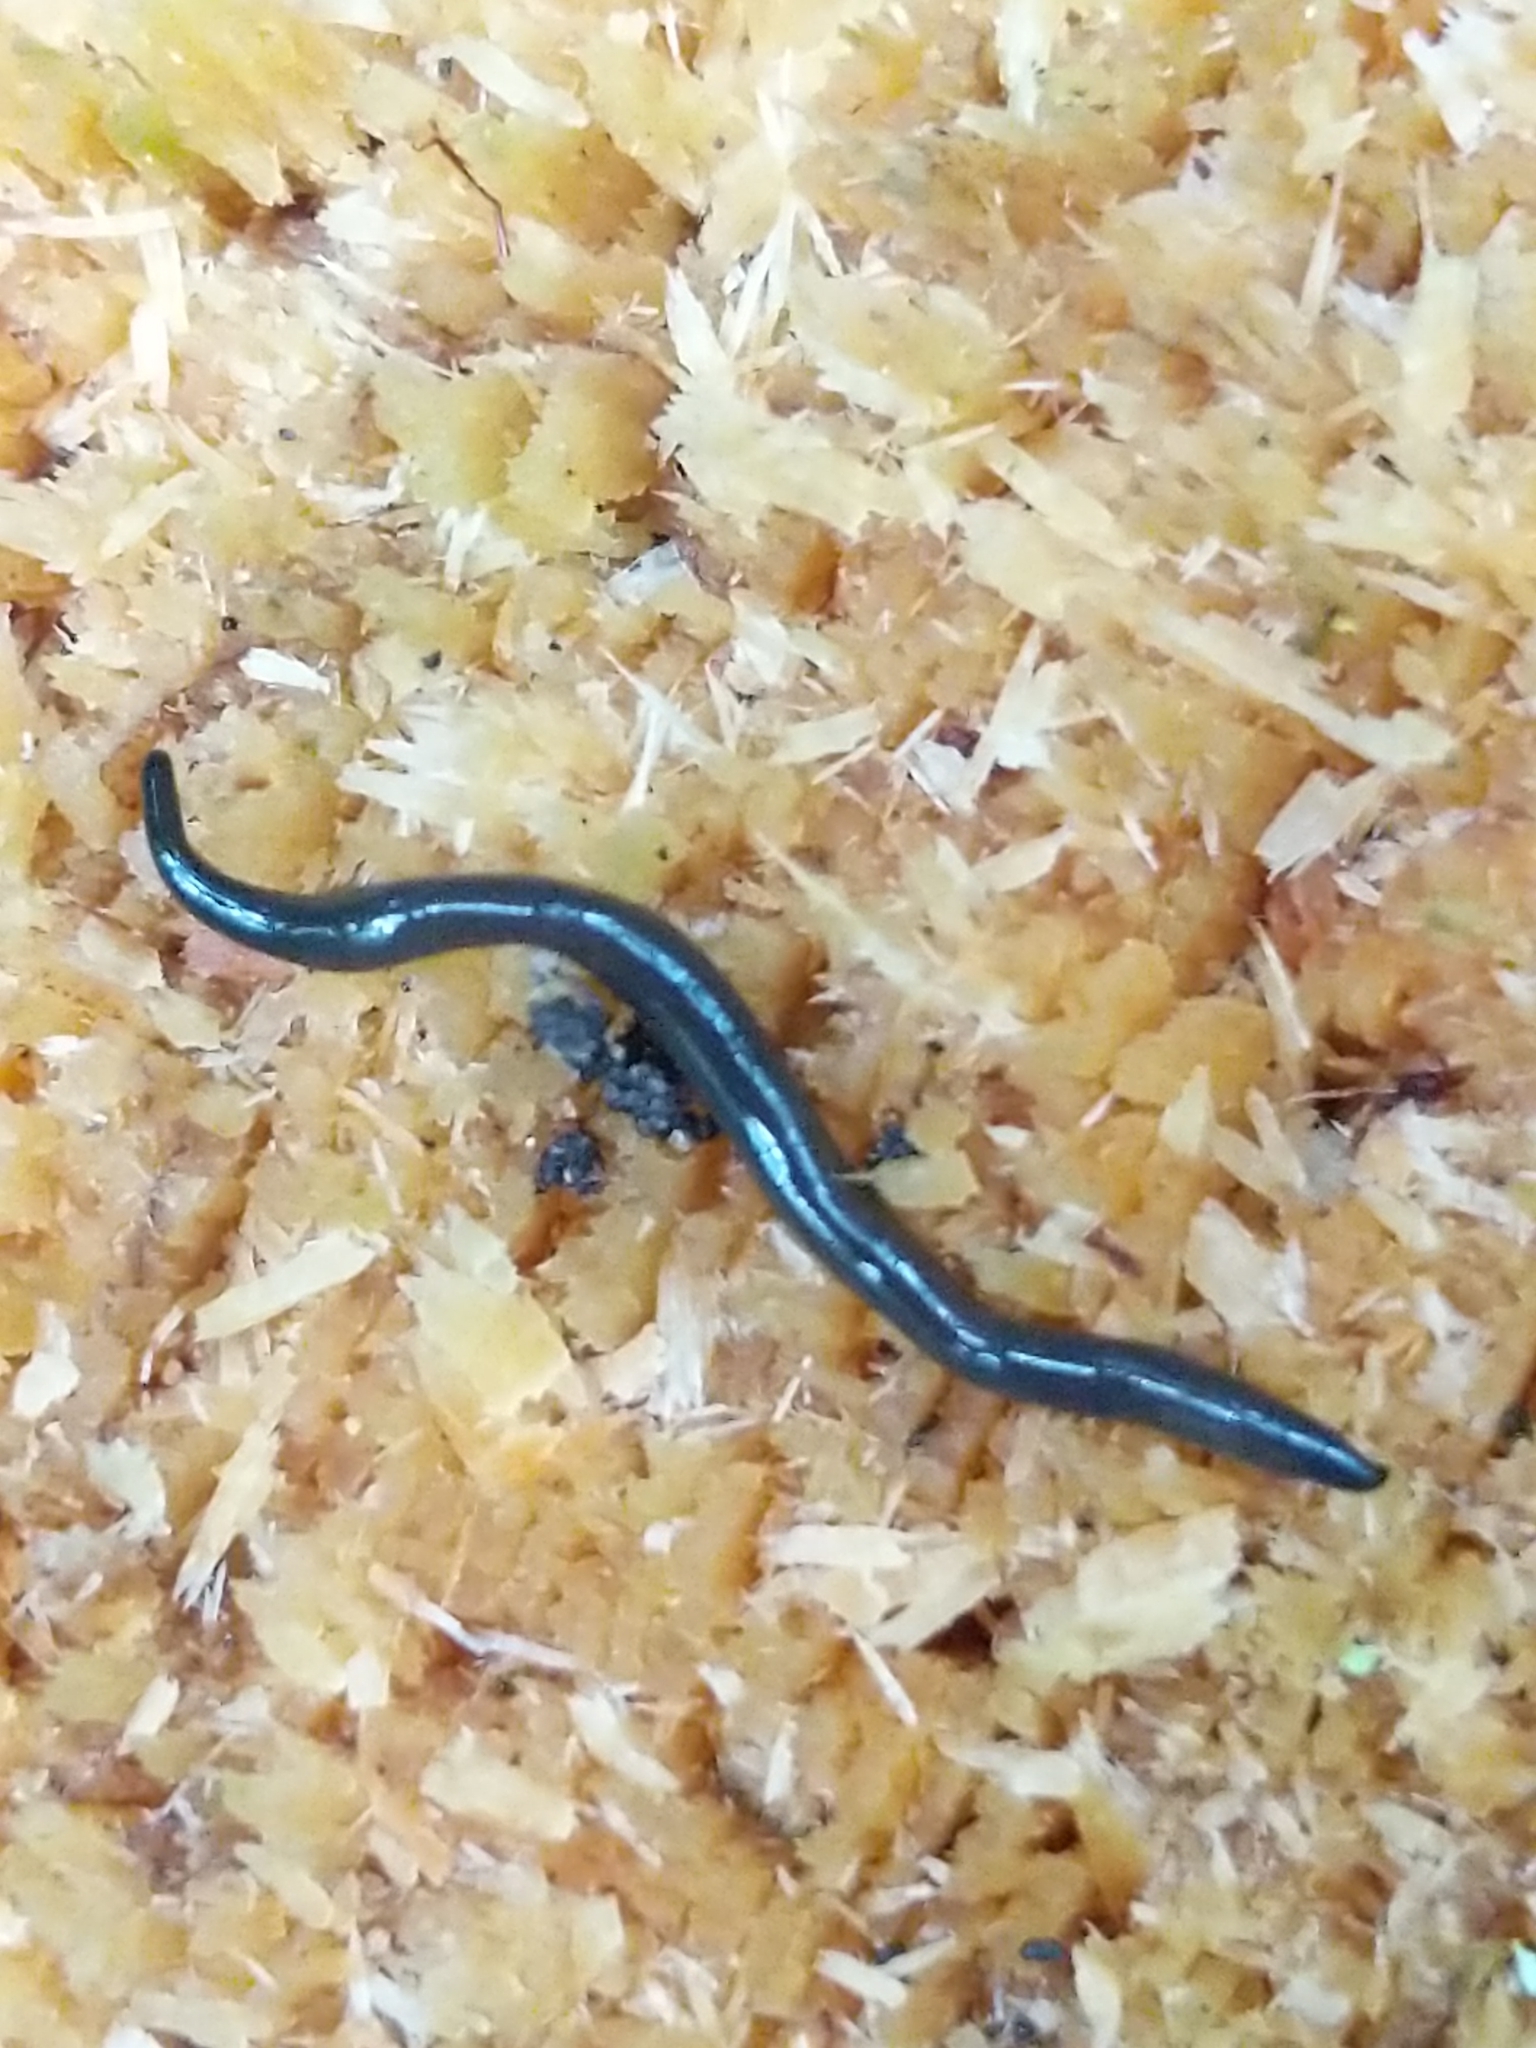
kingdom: Animalia
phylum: Platyhelminthes
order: Tricladida
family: Geoplanidae
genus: Microplana
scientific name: Microplana terrestris
